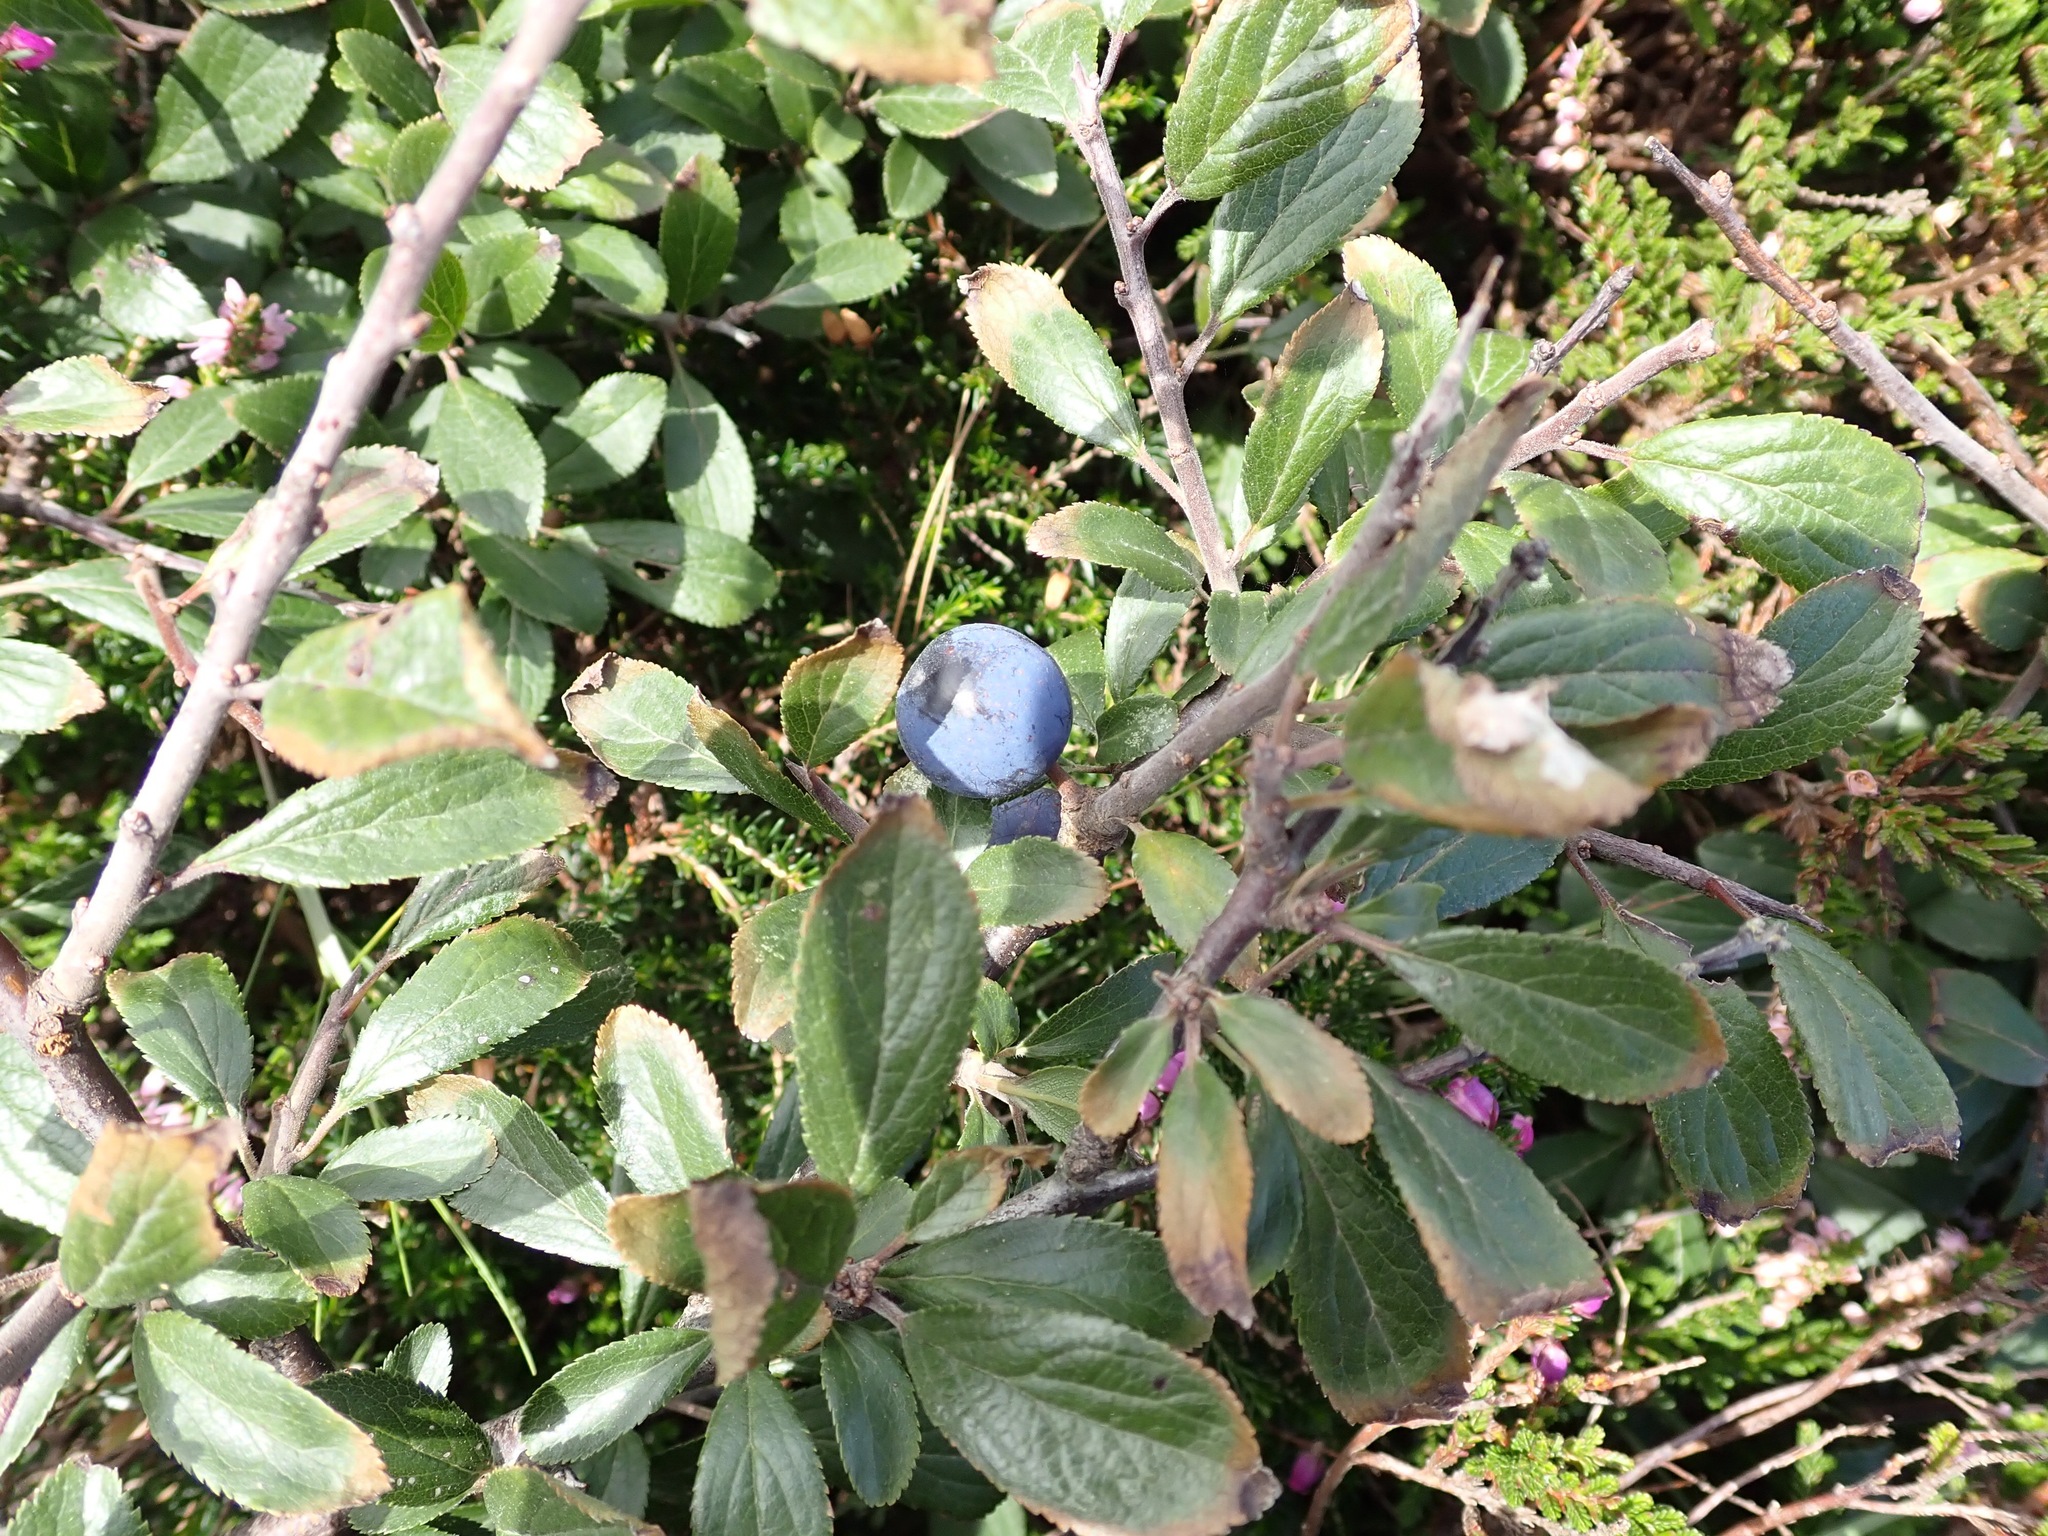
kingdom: Plantae
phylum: Tracheophyta
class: Magnoliopsida
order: Rosales
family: Rosaceae
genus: Prunus
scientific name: Prunus spinosa
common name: Blackthorn
